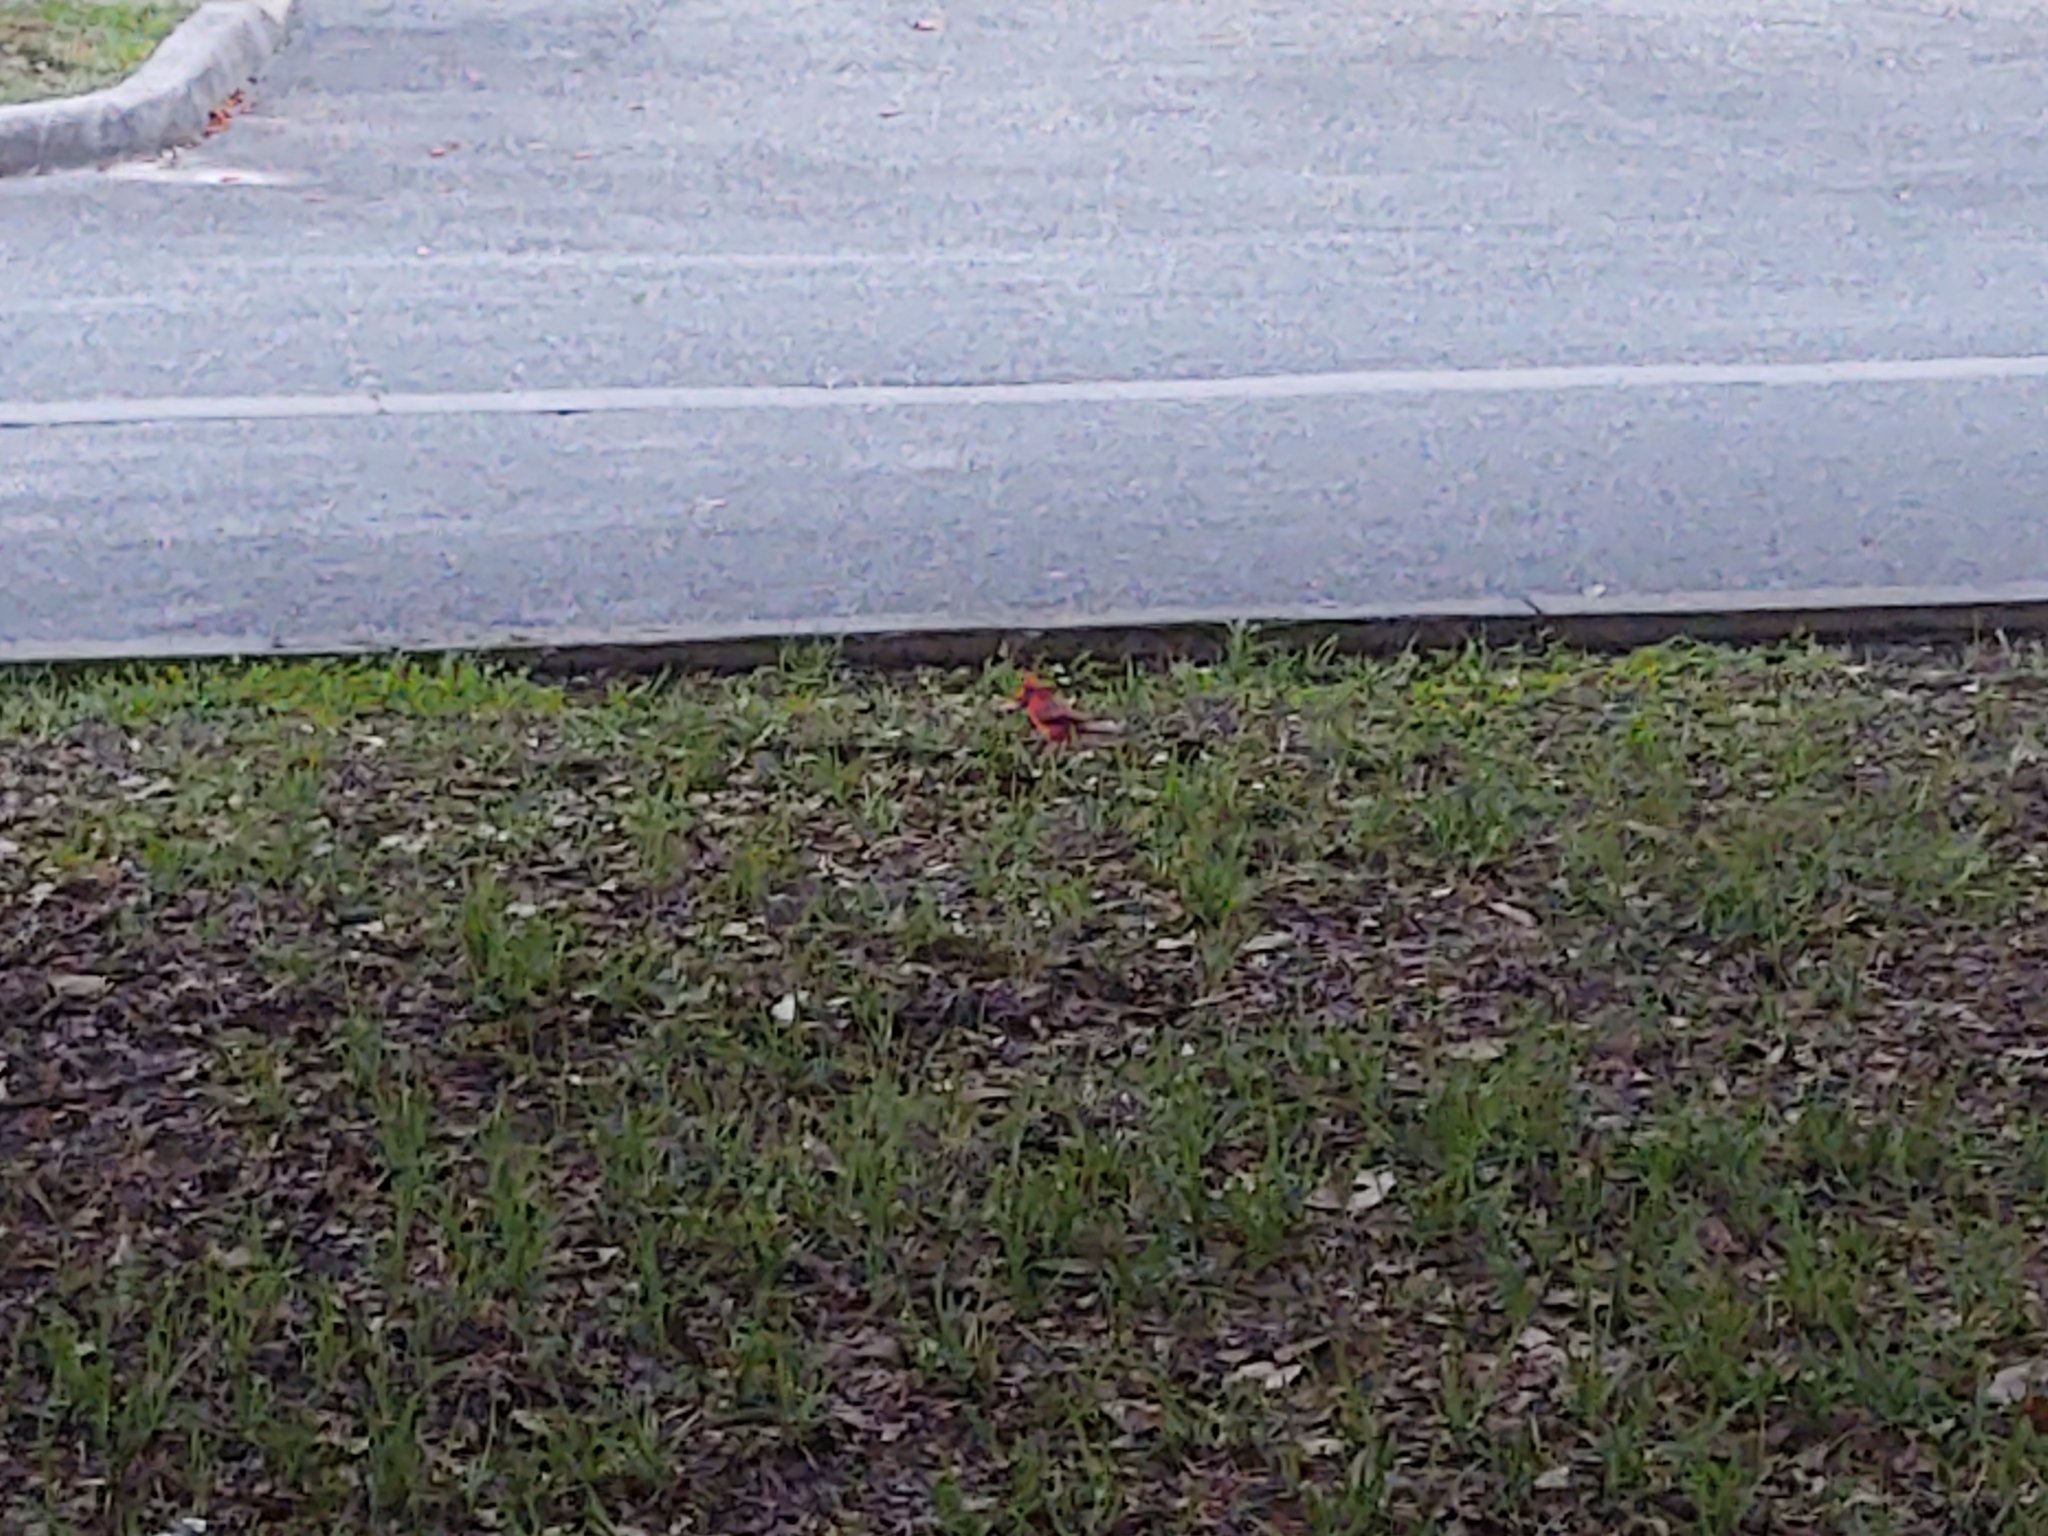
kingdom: Animalia
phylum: Chordata
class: Aves
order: Passeriformes
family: Cardinalidae
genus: Cardinalis
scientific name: Cardinalis cardinalis
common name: Northern cardinal
